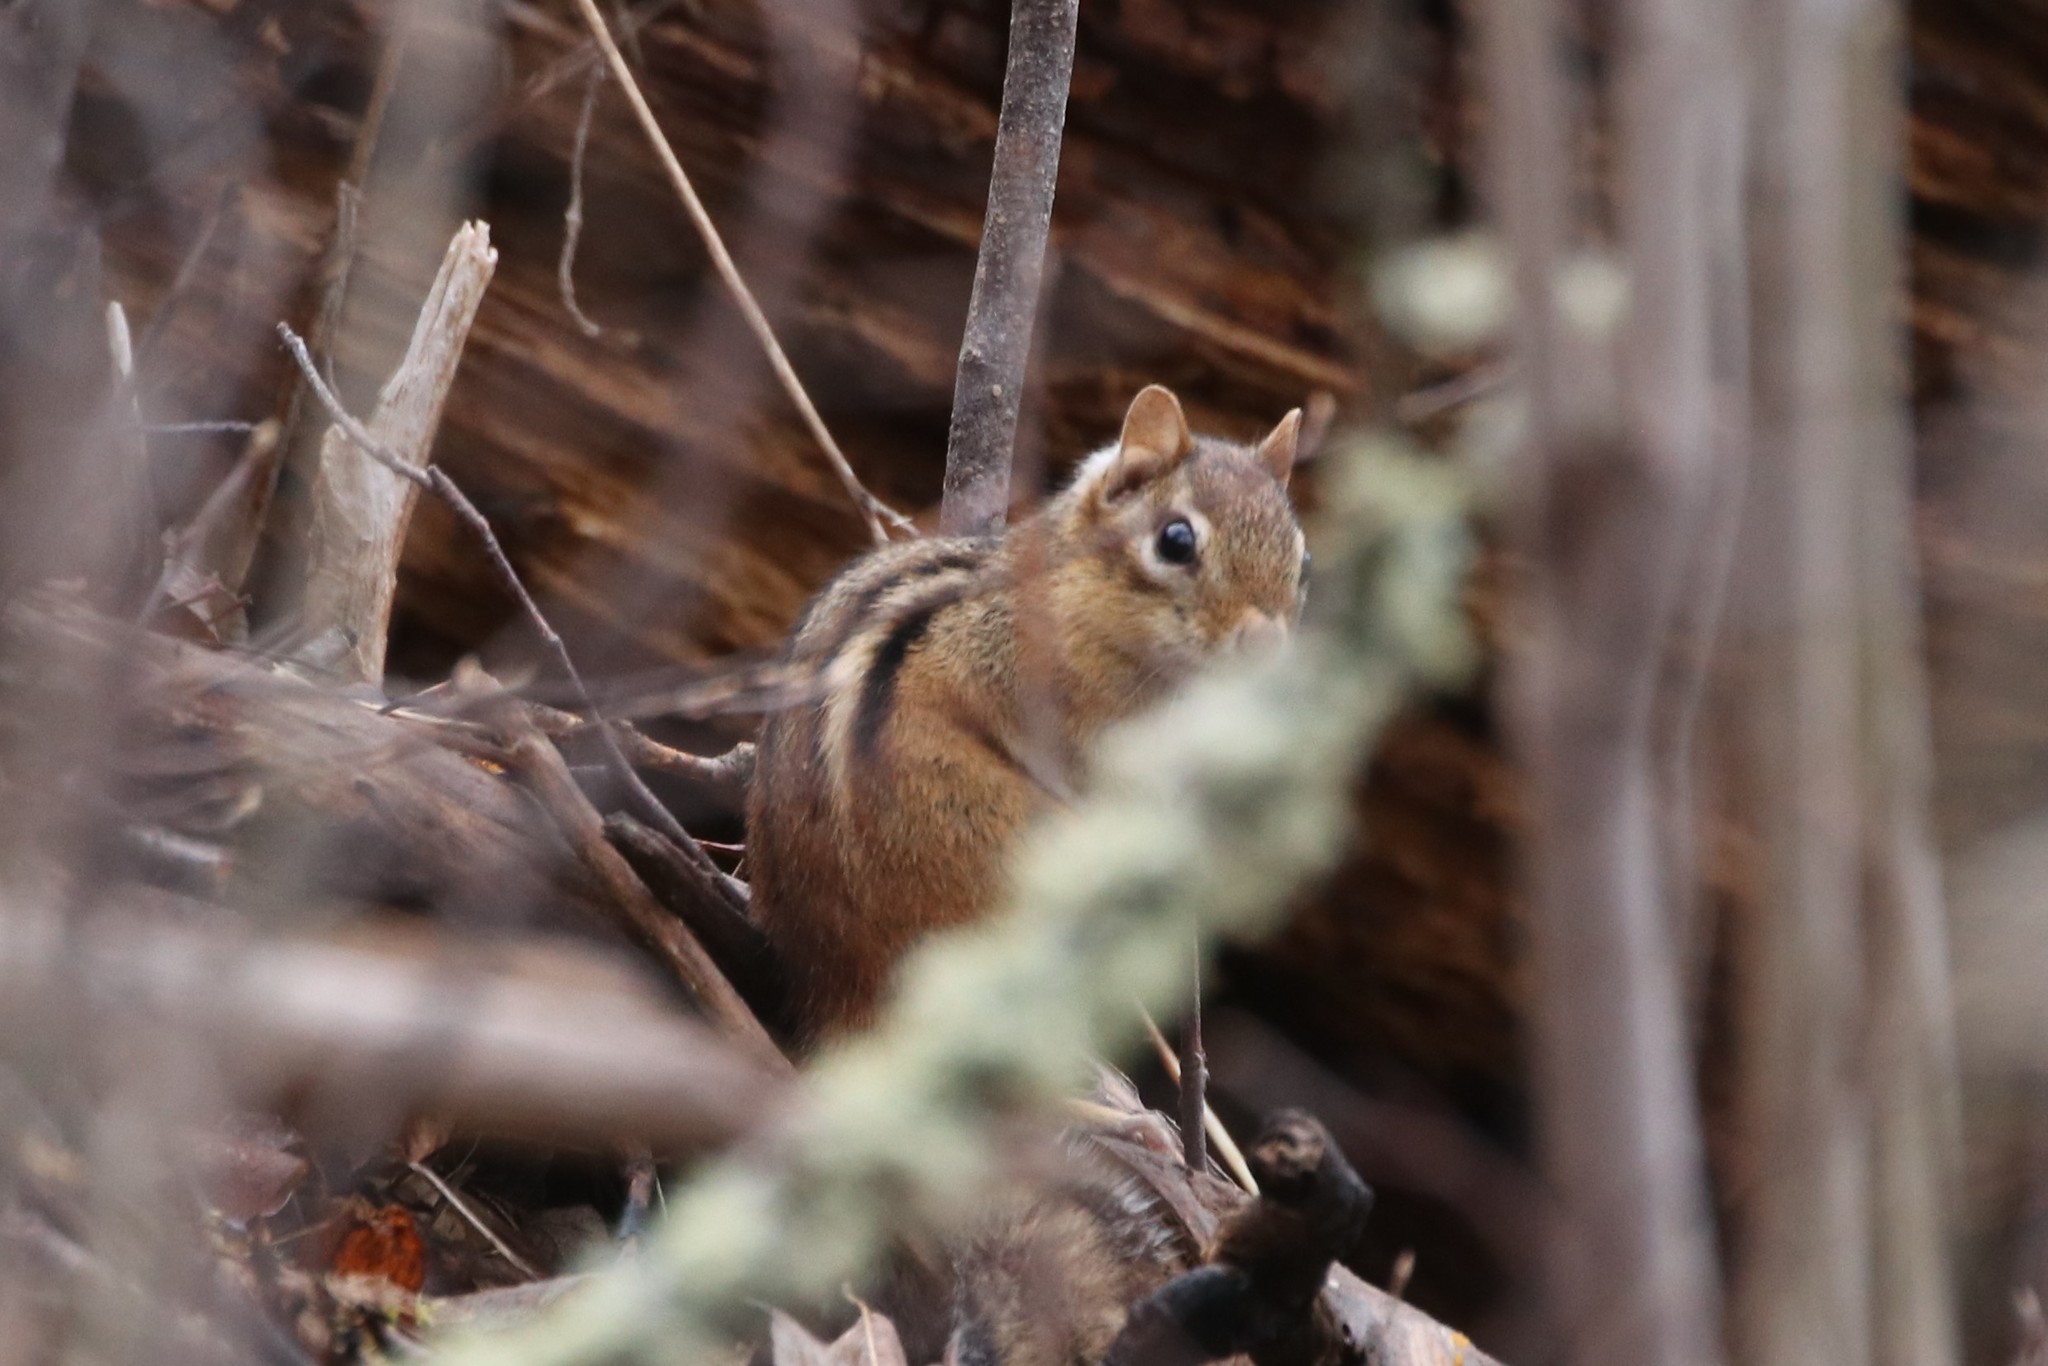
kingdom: Animalia
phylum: Chordata
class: Mammalia
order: Rodentia
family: Sciuridae
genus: Tamias
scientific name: Tamias striatus
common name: Eastern chipmunk
